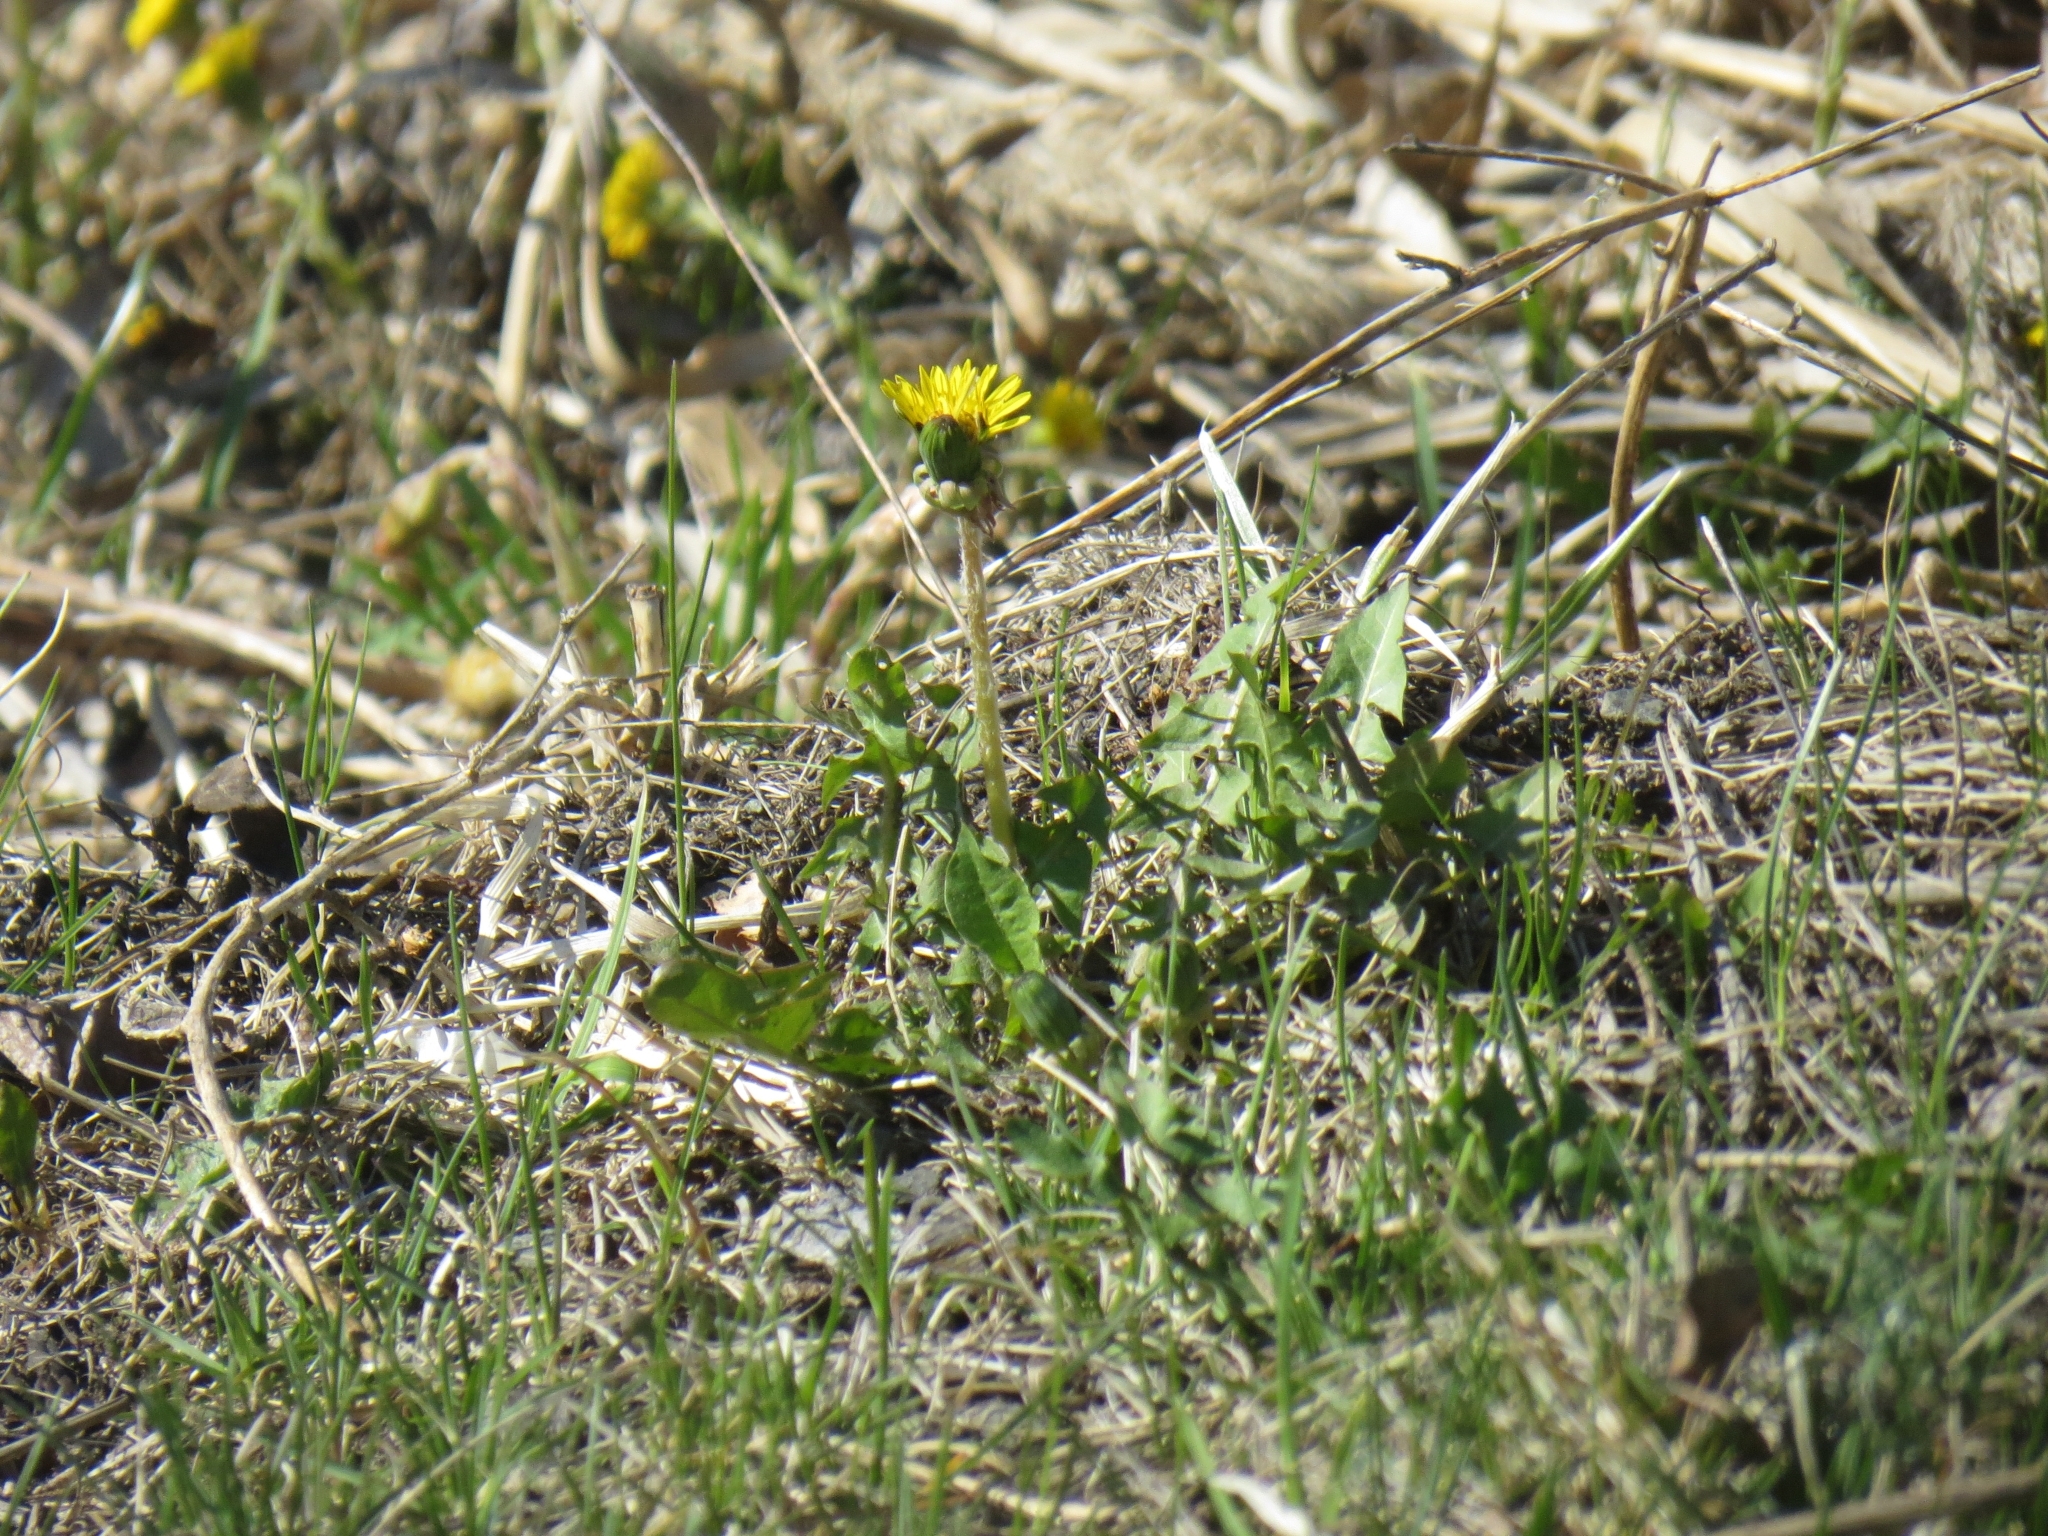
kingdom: Plantae
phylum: Tracheophyta
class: Magnoliopsida
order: Asterales
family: Asteraceae
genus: Taraxacum
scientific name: Taraxacum officinale
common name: Common dandelion
